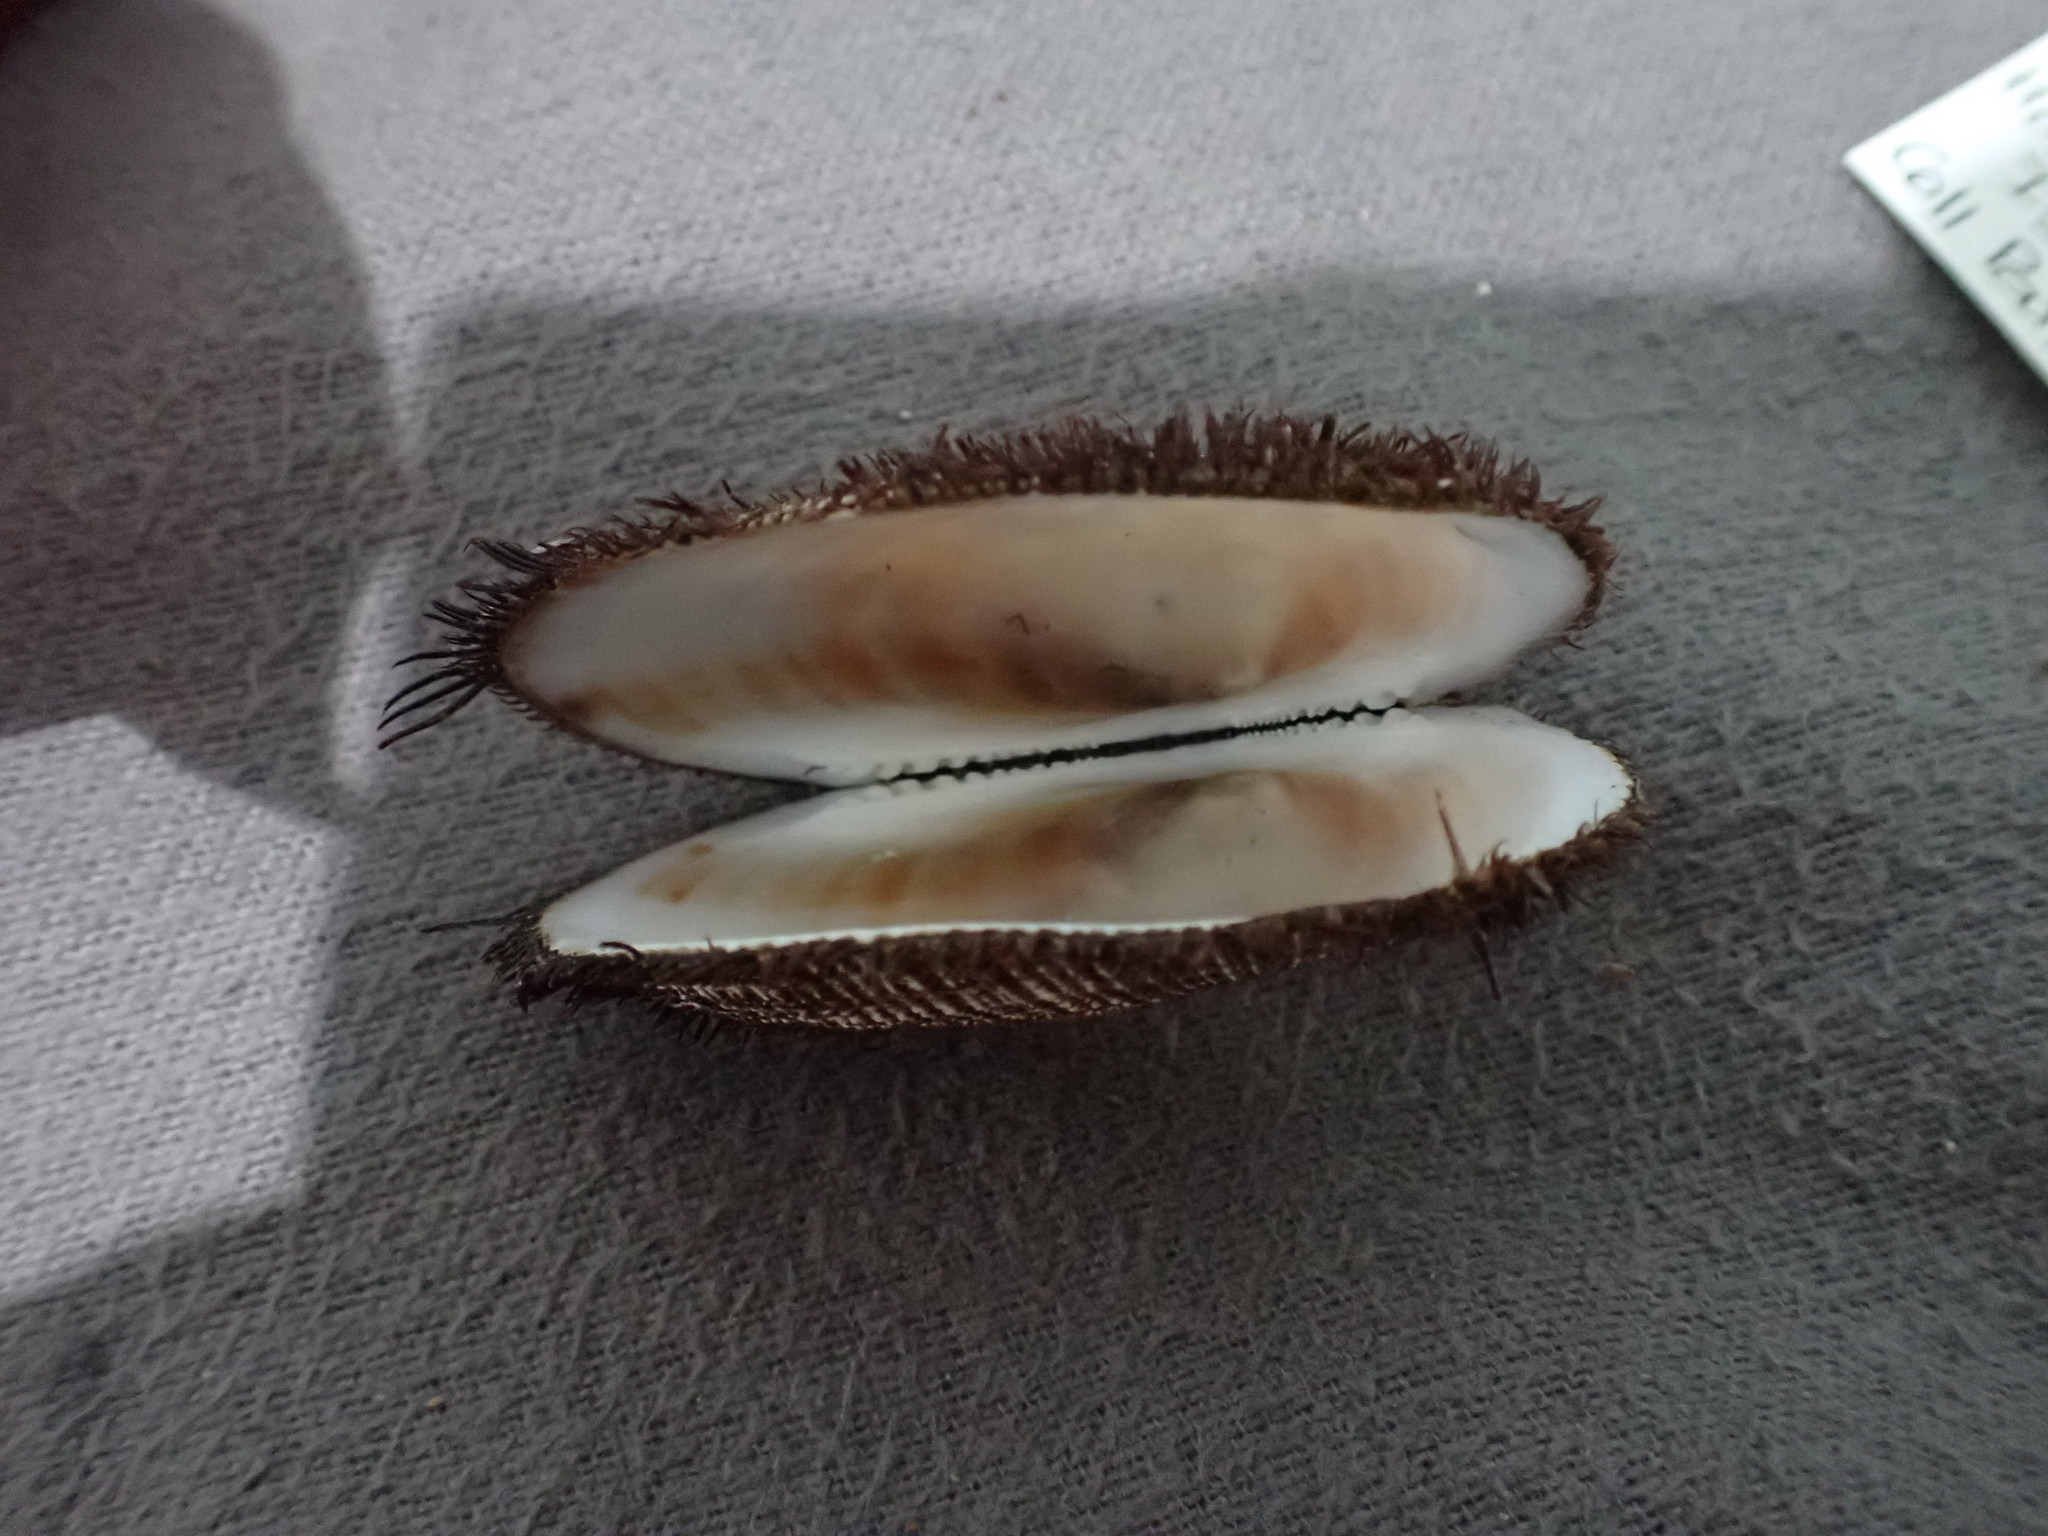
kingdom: Animalia
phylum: Mollusca
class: Bivalvia
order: Arcida
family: Arcidae
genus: Barbatia
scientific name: Barbatia novaezealandiae
